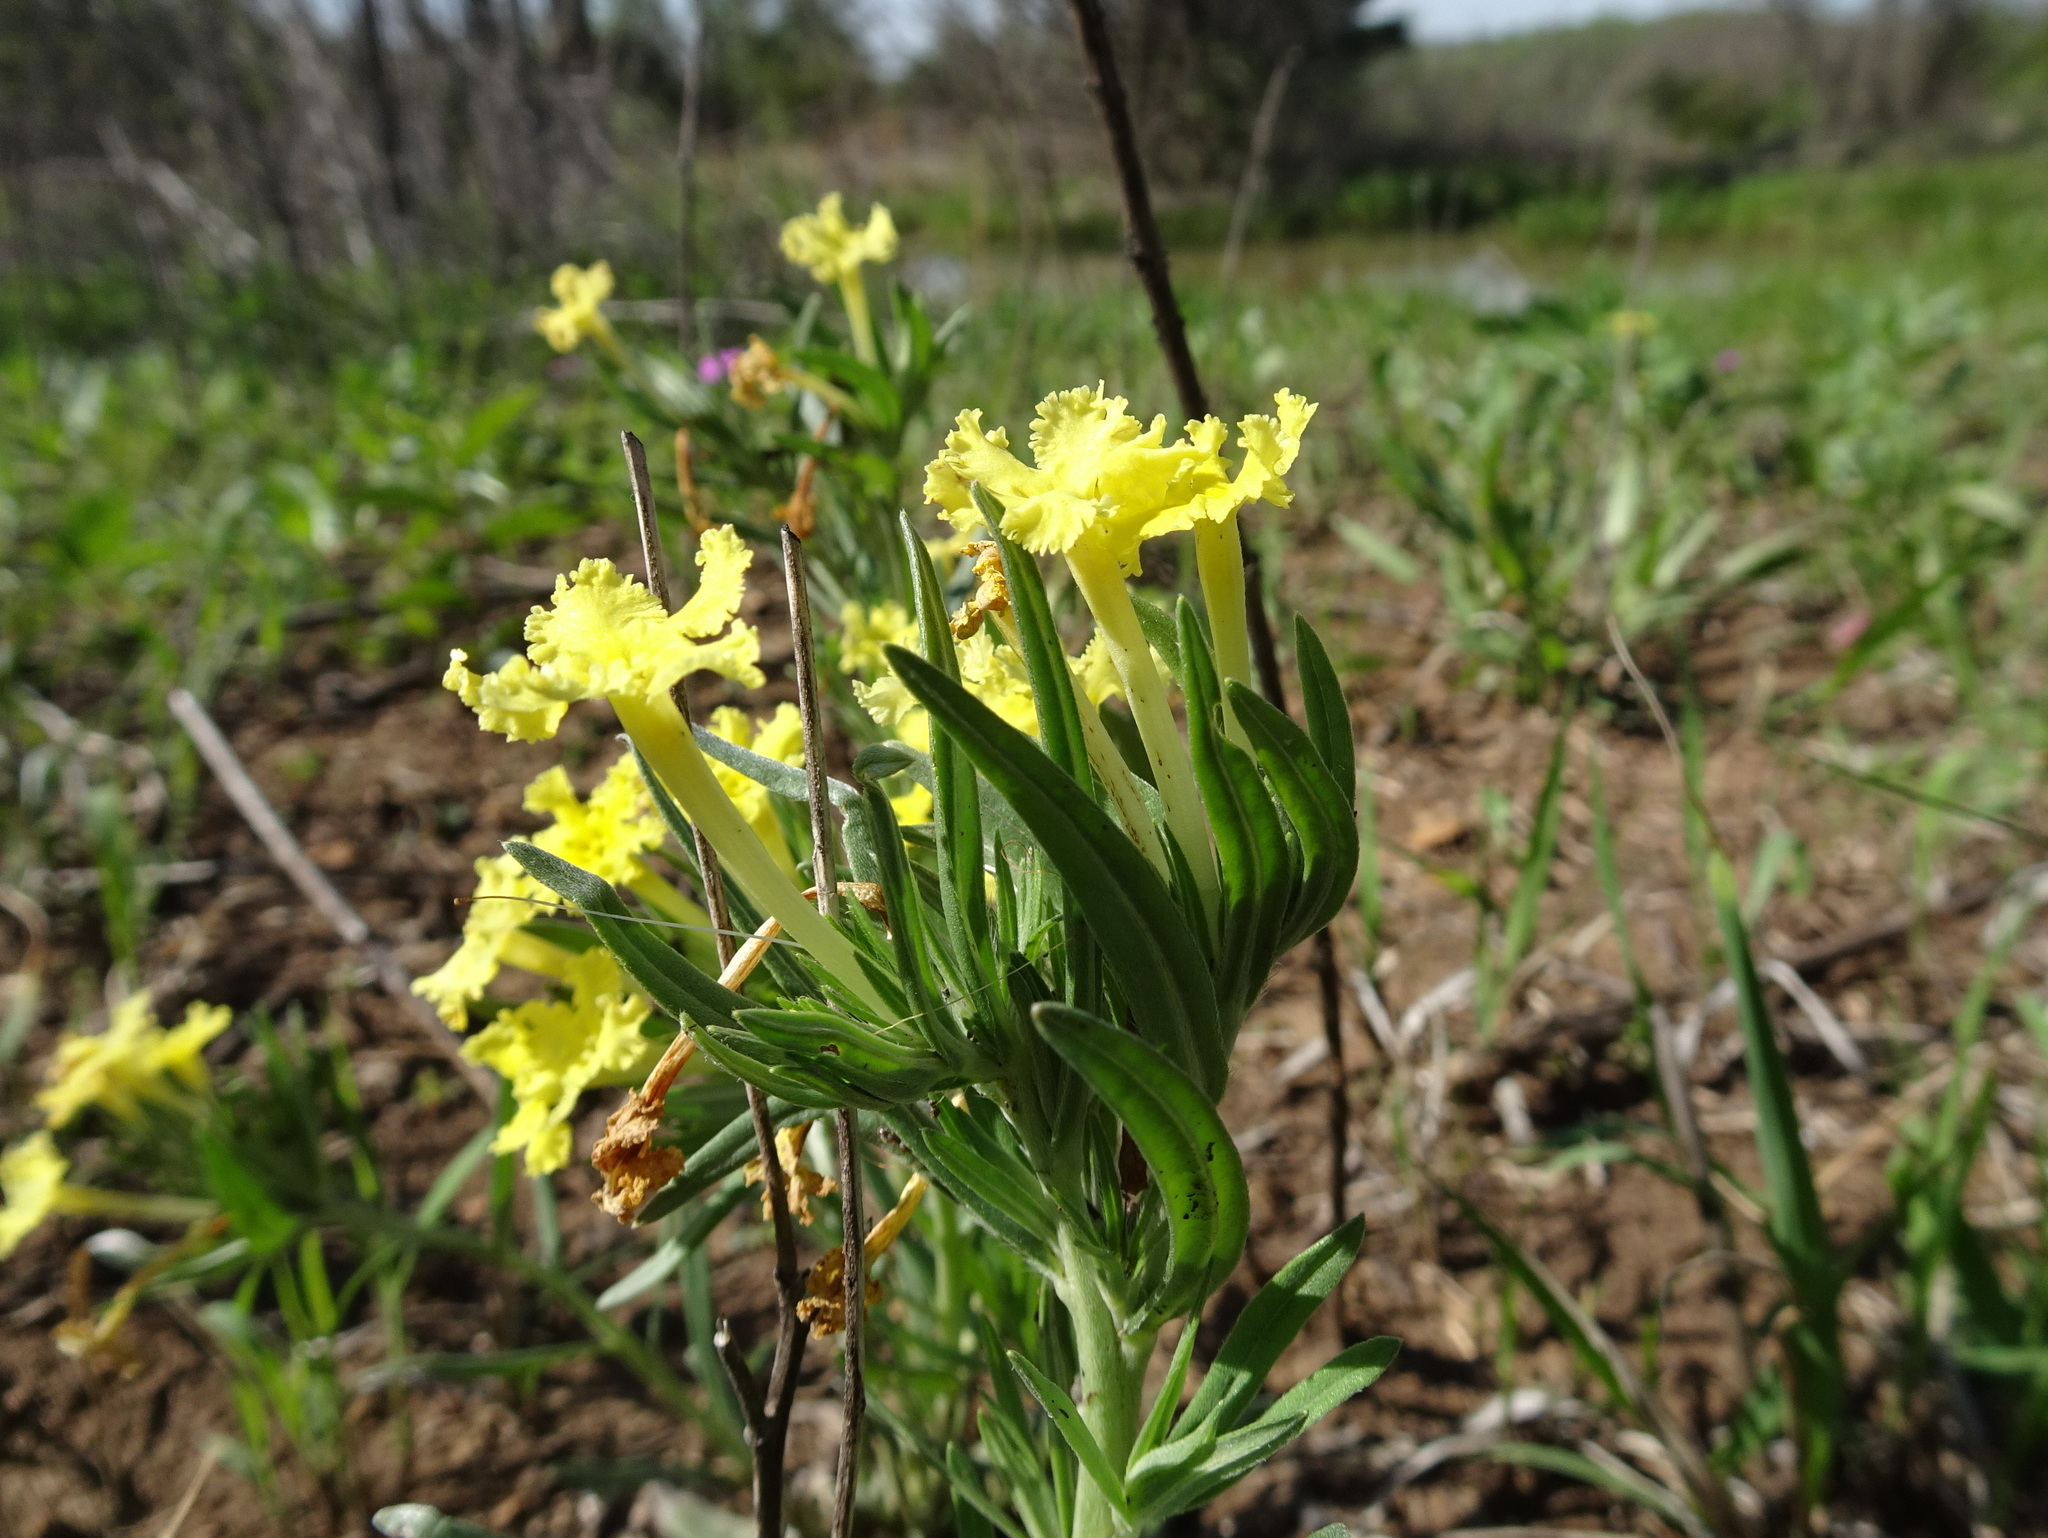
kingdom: Plantae
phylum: Tracheophyta
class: Magnoliopsida
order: Boraginales
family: Boraginaceae
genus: Lithospermum
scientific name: Lithospermum incisum
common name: Fringed gromwell
